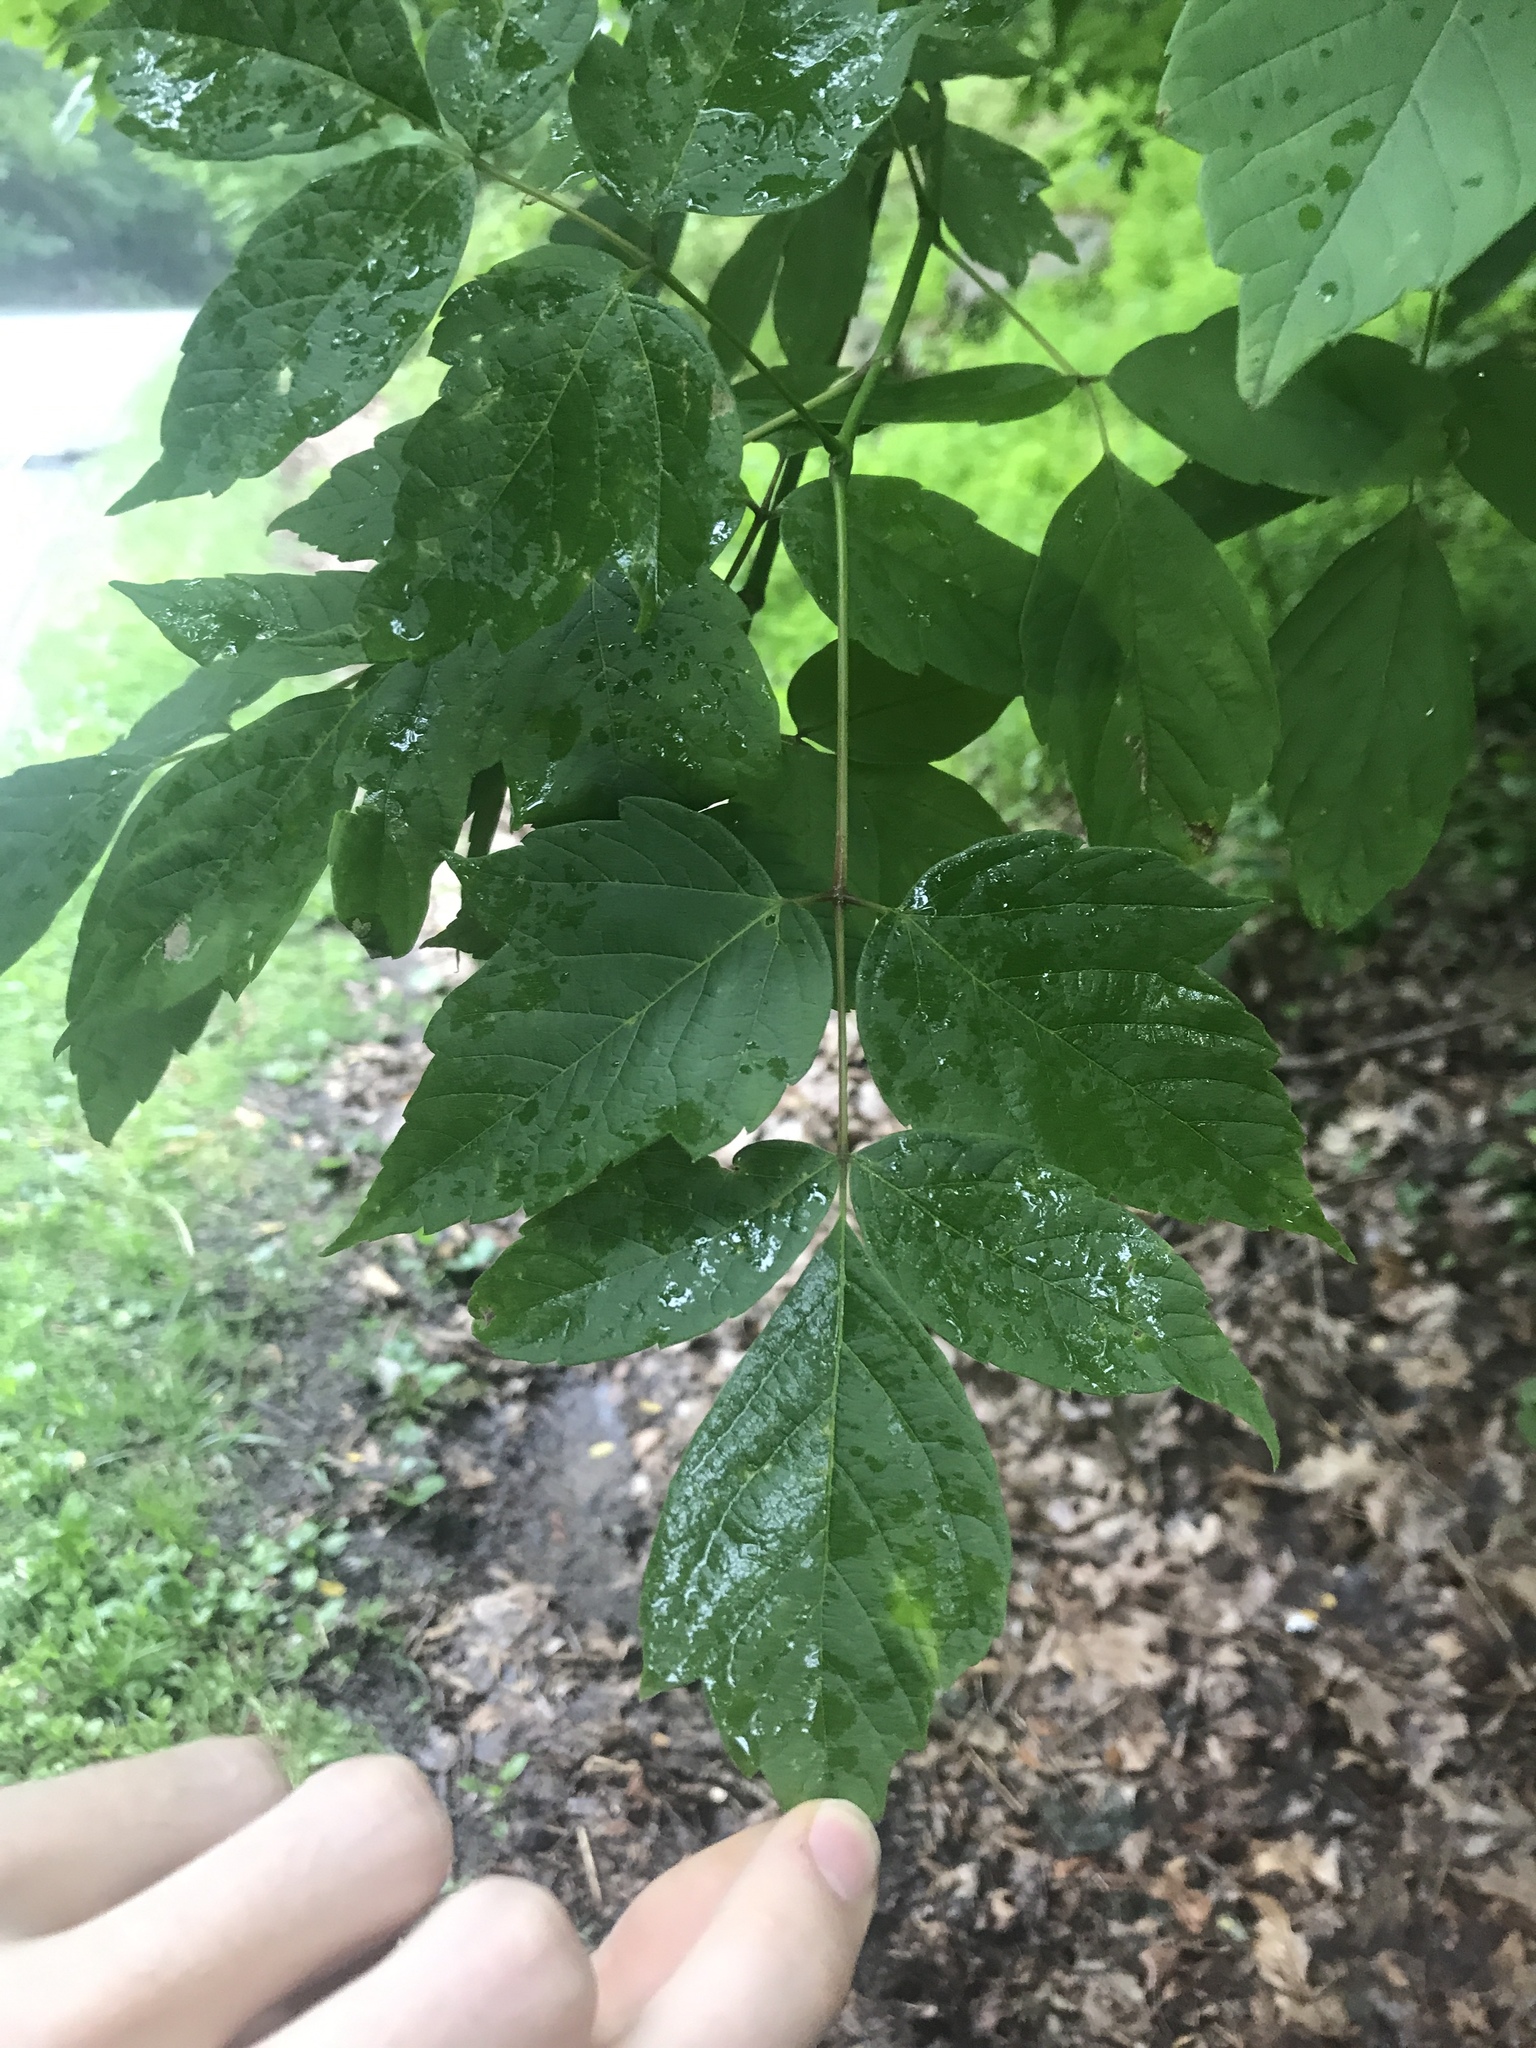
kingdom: Plantae
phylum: Tracheophyta
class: Magnoliopsida
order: Sapindales
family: Sapindaceae
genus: Acer
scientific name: Acer negundo
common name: Ashleaf maple
